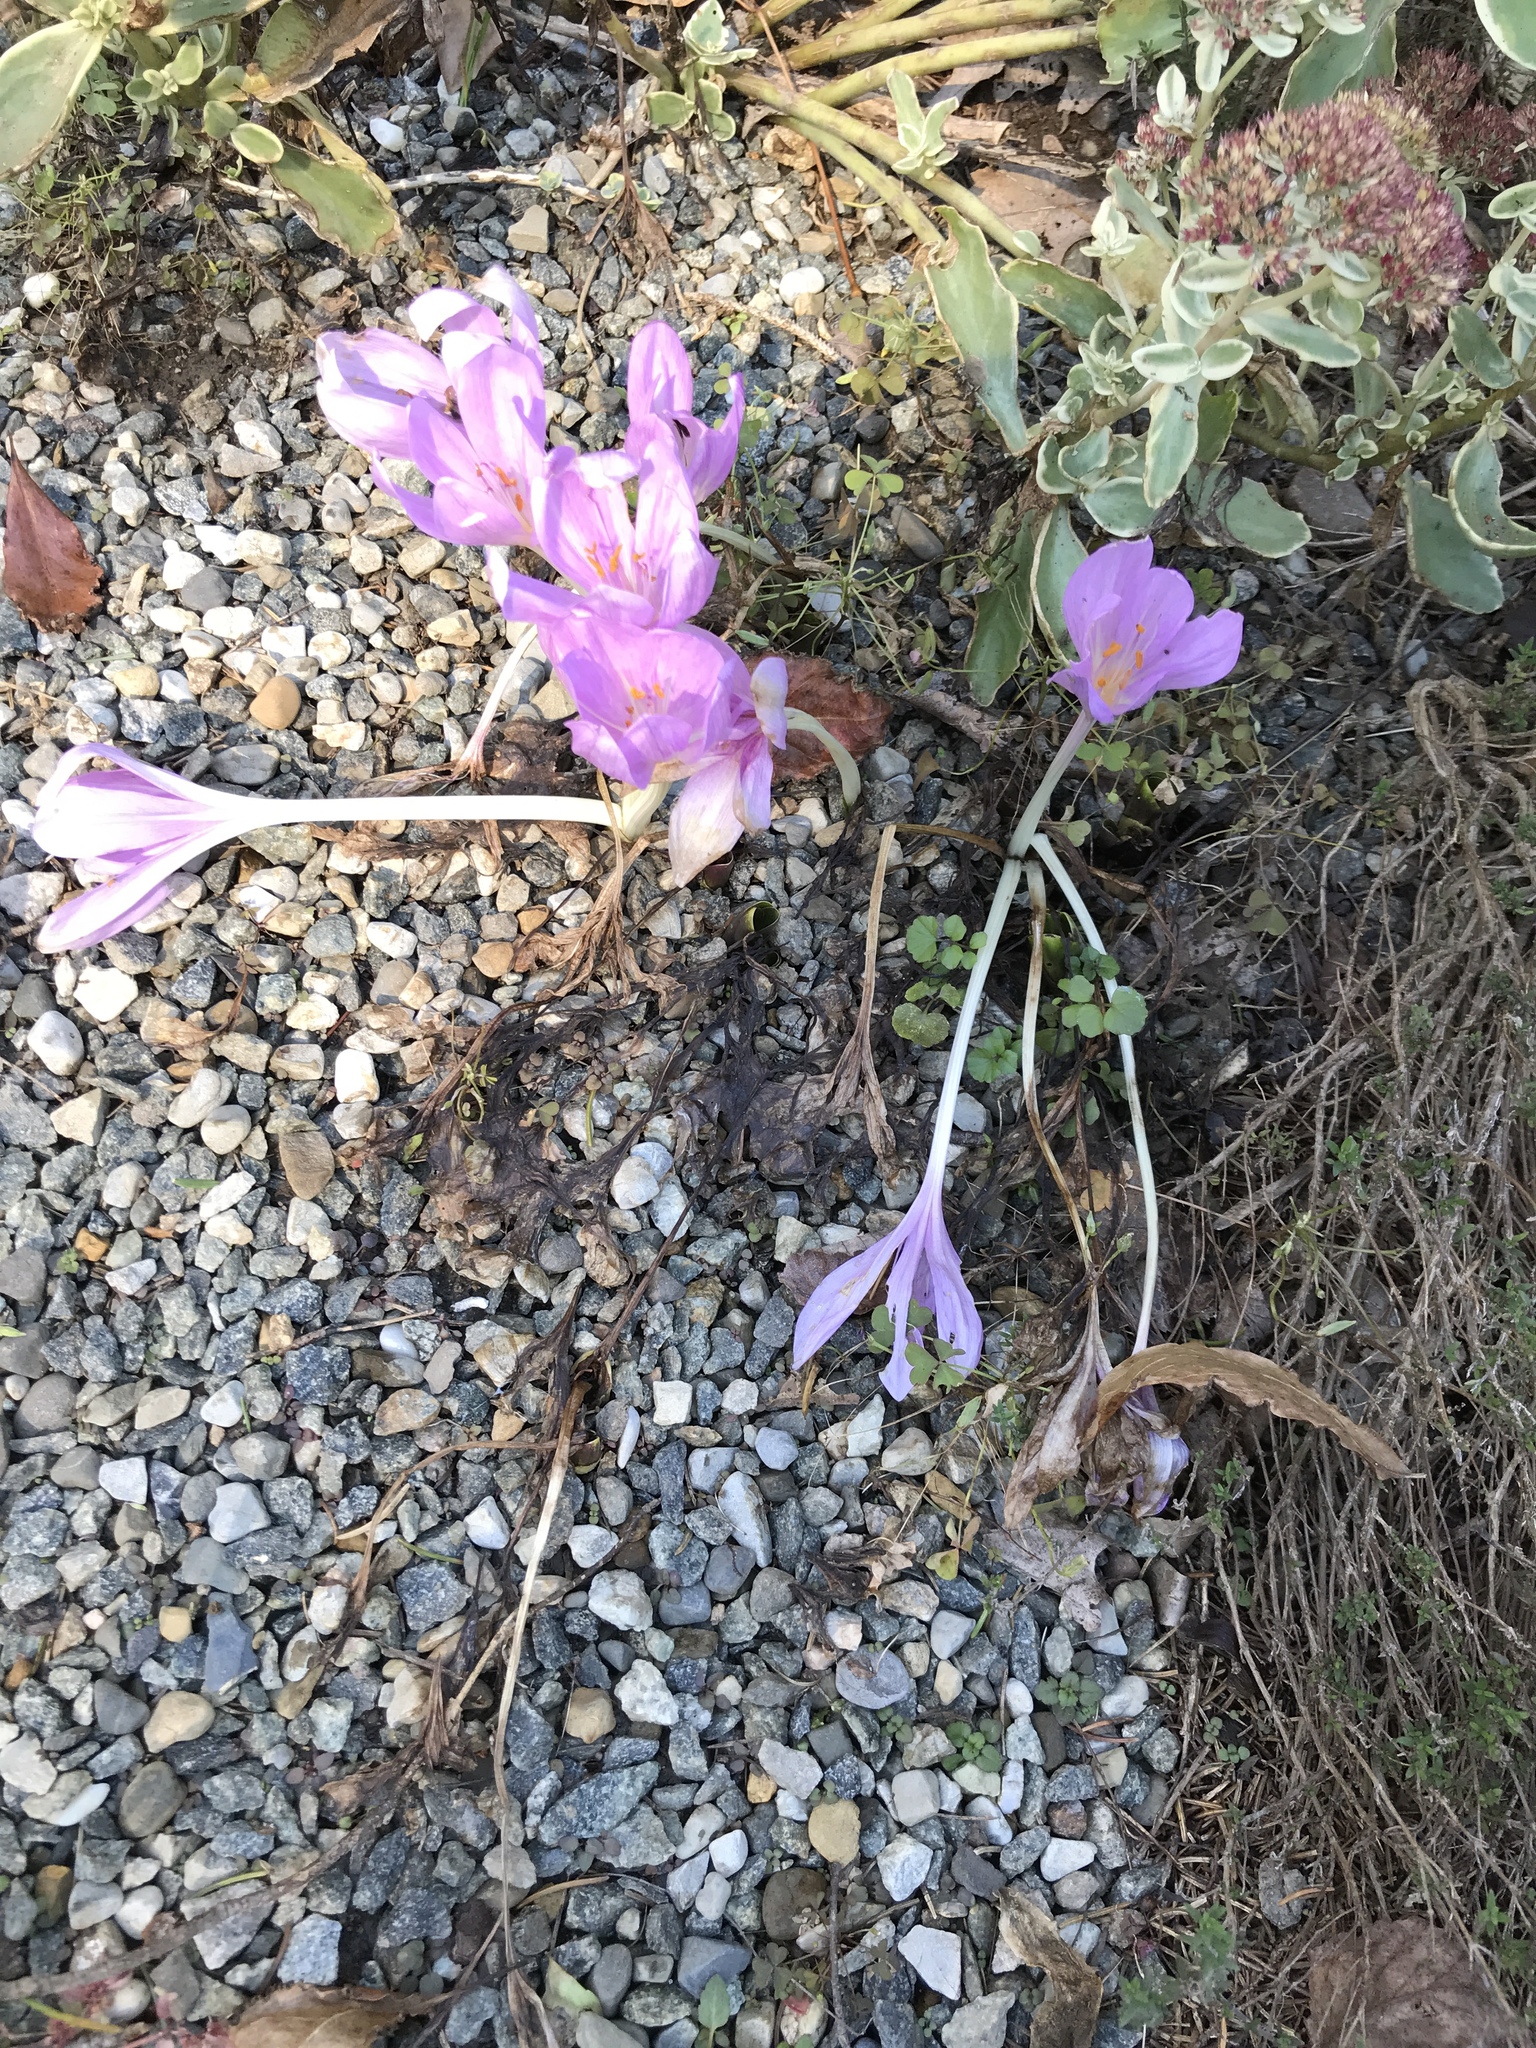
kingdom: Plantae
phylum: Tracheophyta
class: Liliopsida
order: Liliales
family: Colchicaceae
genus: Colchicum
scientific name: Colchicum autumnale
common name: Autumn crocus
